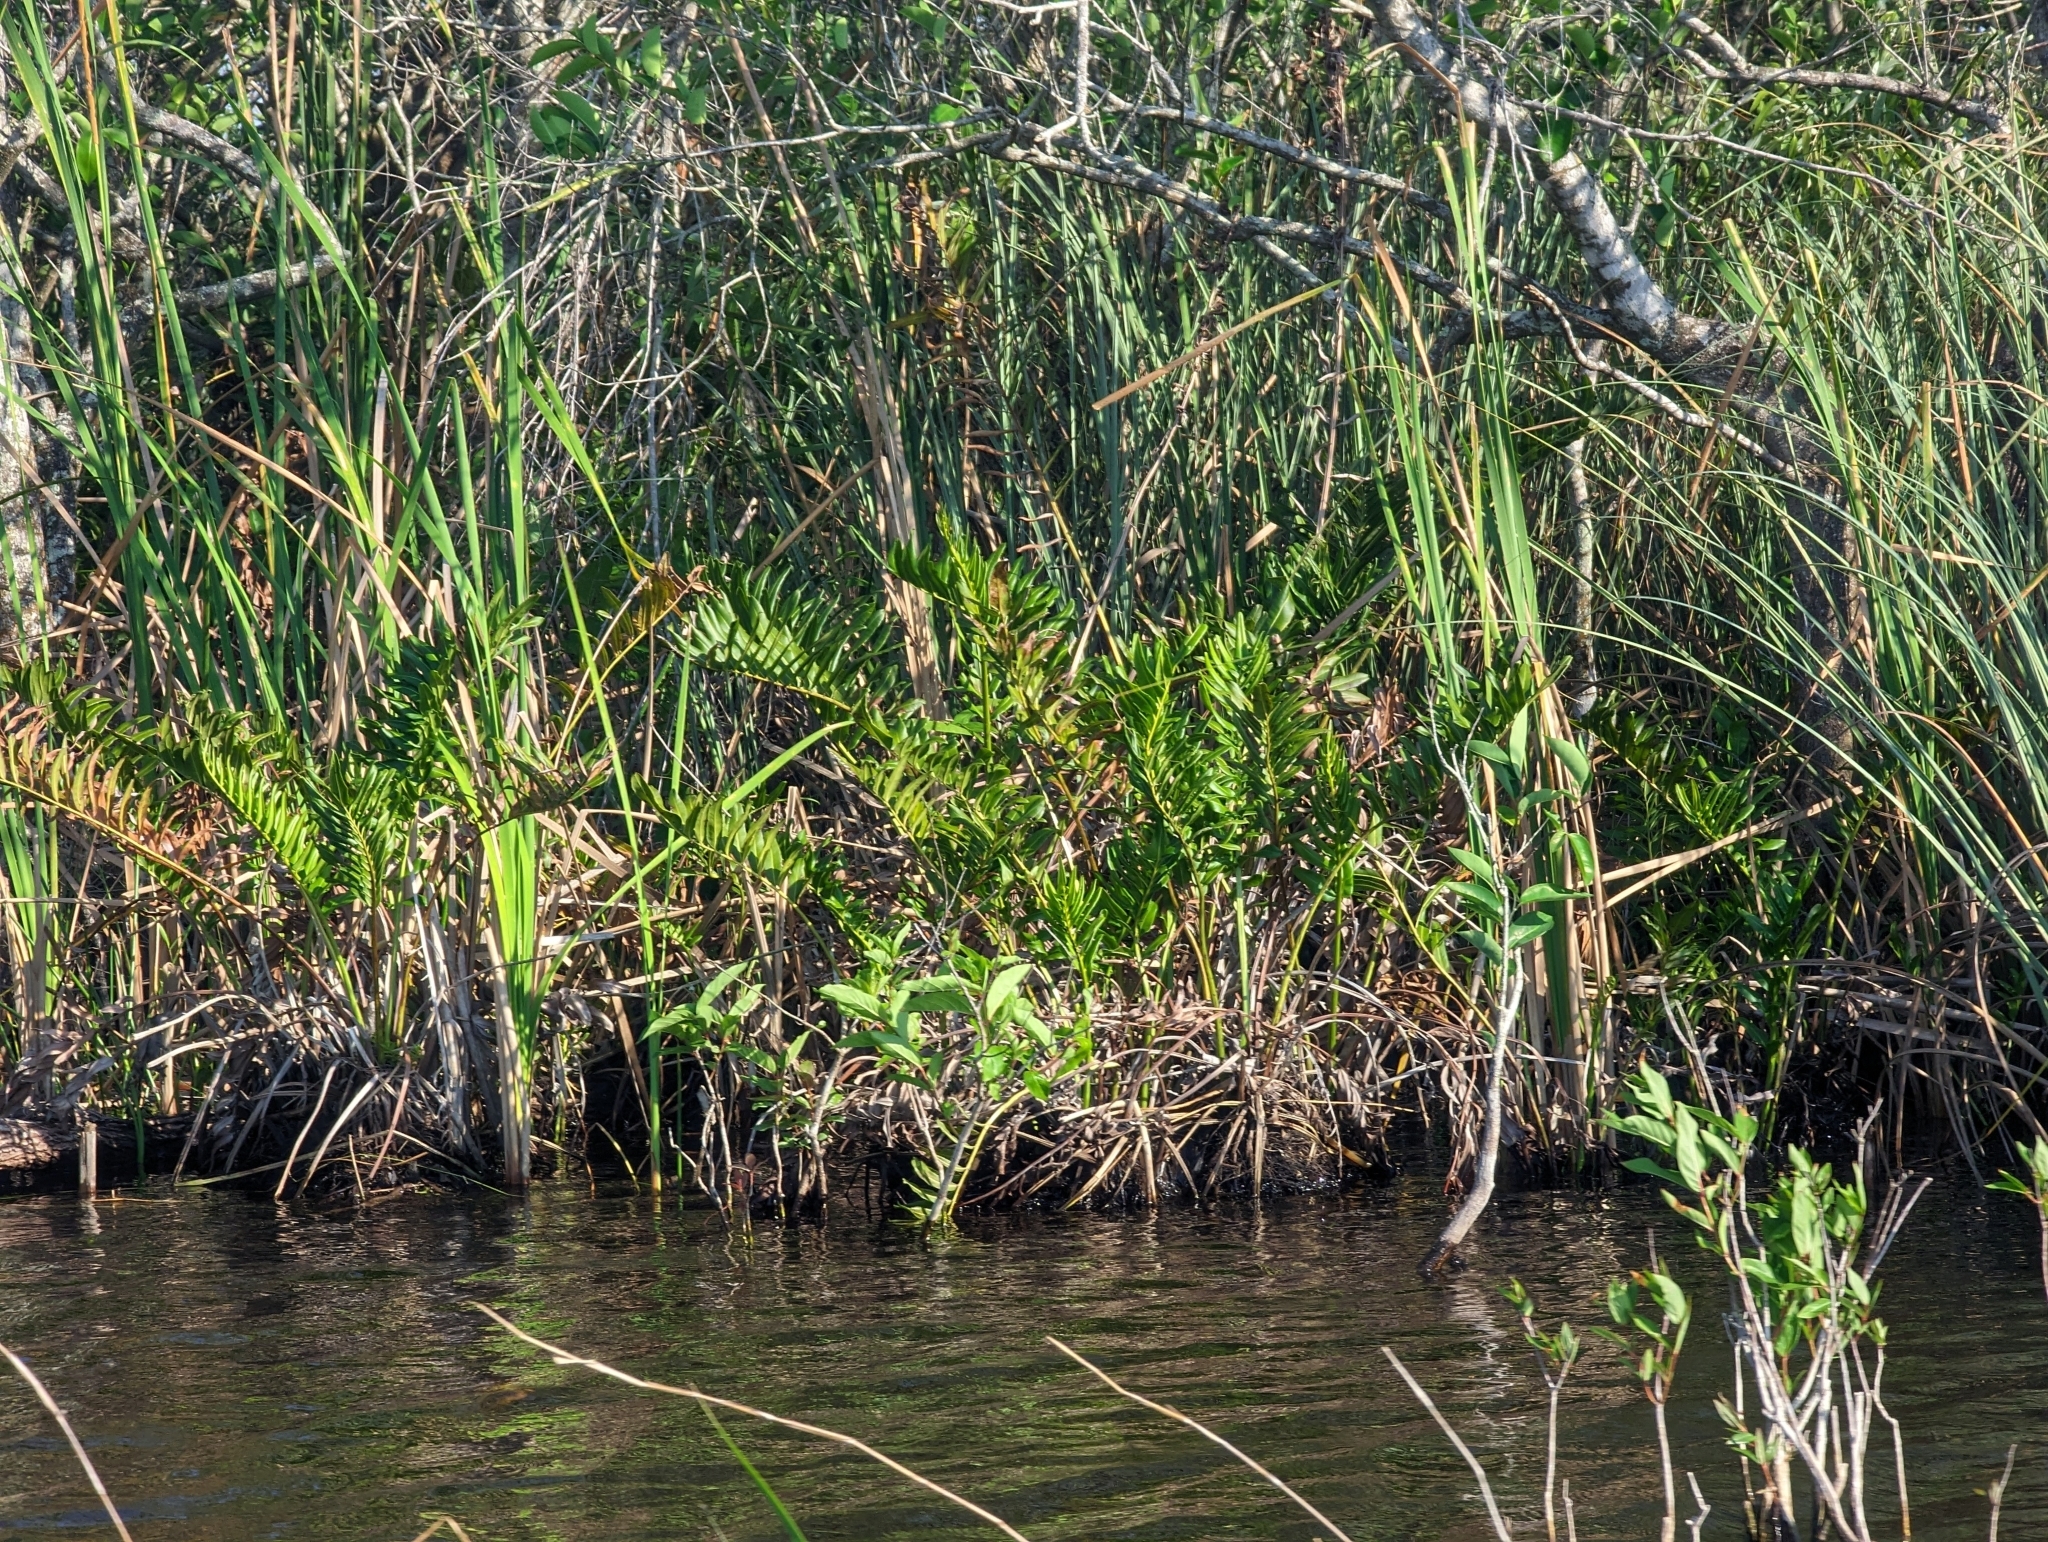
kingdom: Plantae
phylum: Tracheophyta
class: Polypodiopsida
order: Polypodiales
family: Pteridaceae
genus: Acrostichum
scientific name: Acrostichum danaeifolium
